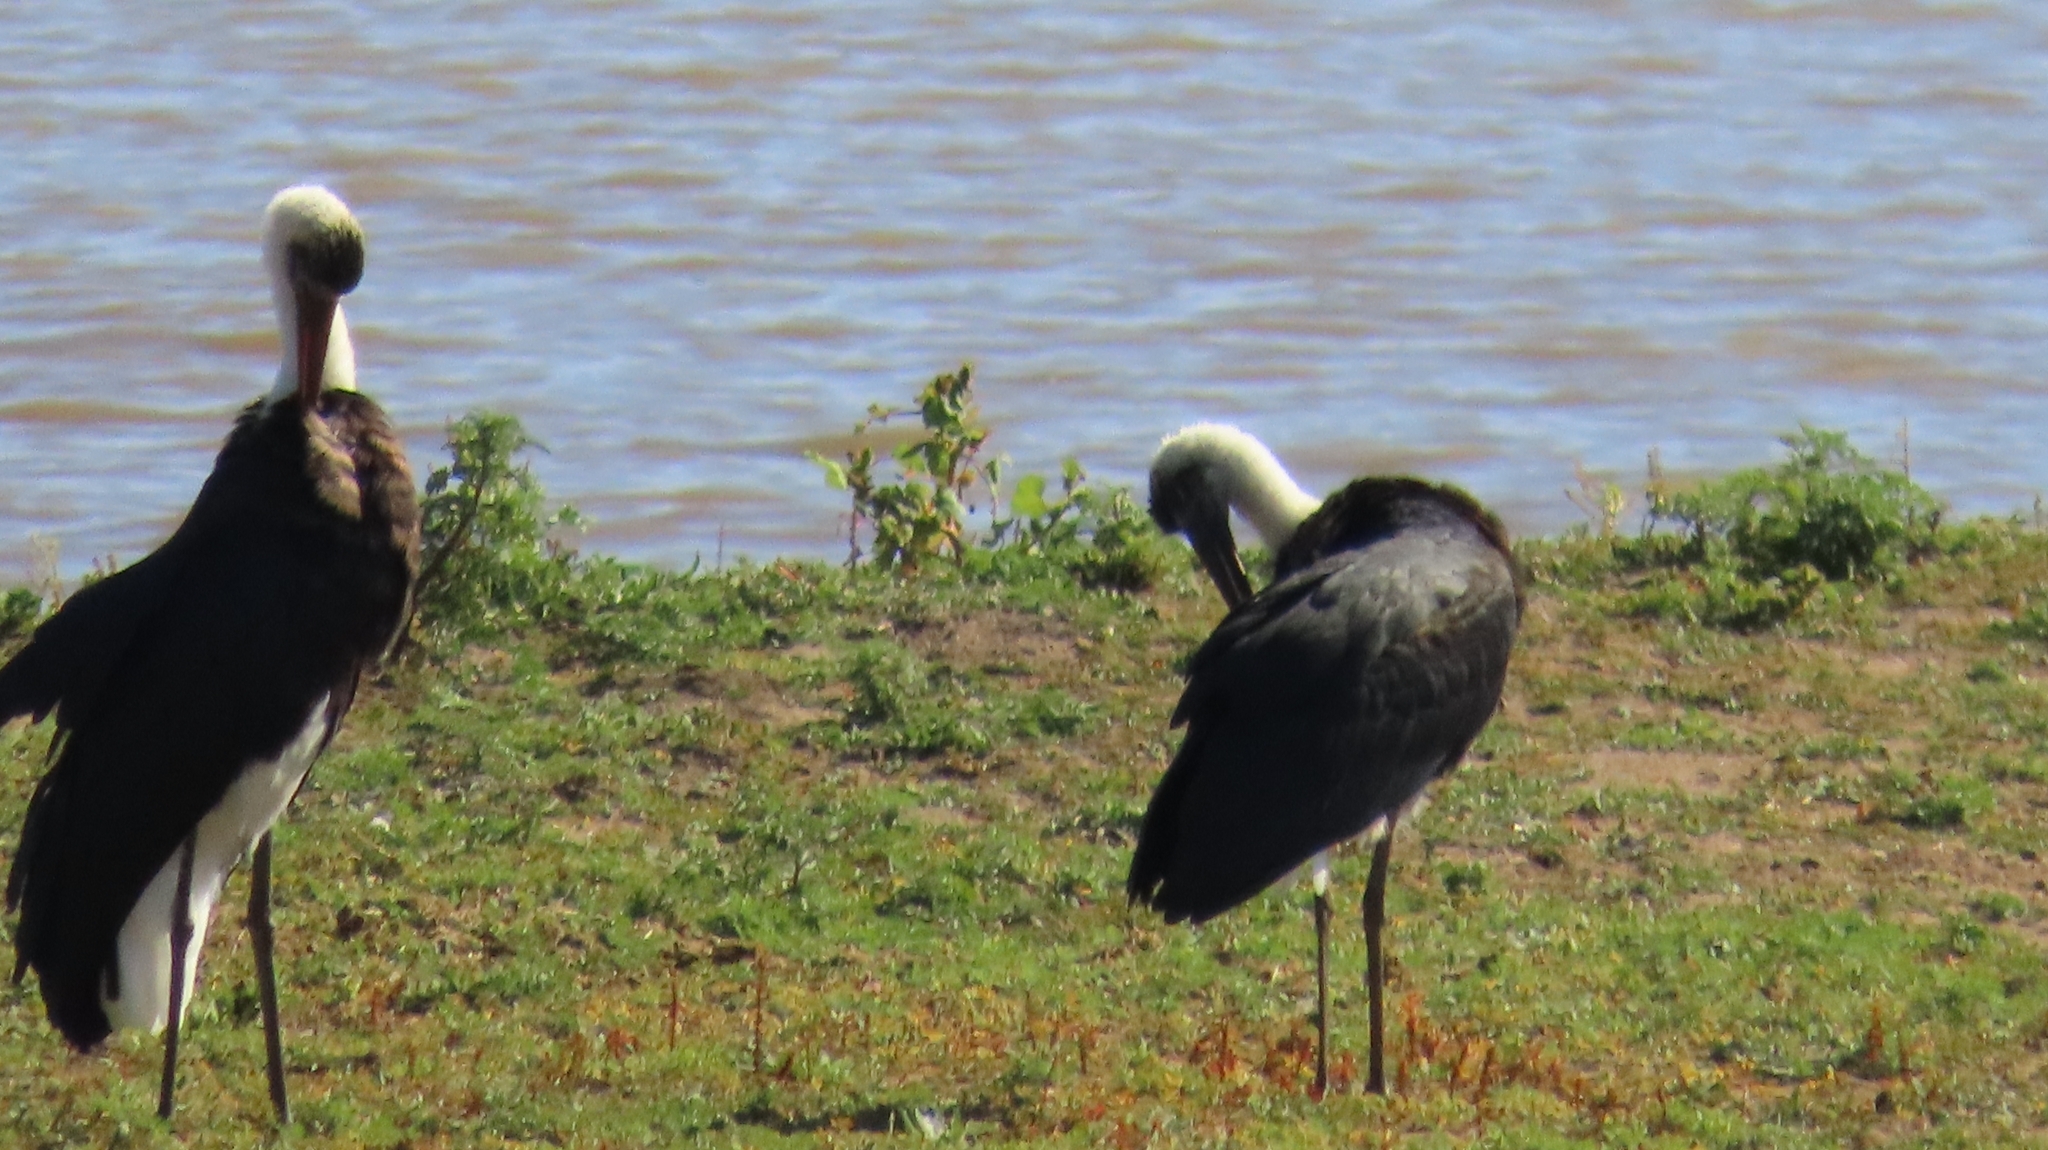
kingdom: Animalia
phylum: Chordata
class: Aves
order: Ciconiiformes
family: Ciconiidae
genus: Ciconia
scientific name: Ciconia microscelis
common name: African woollyneck
